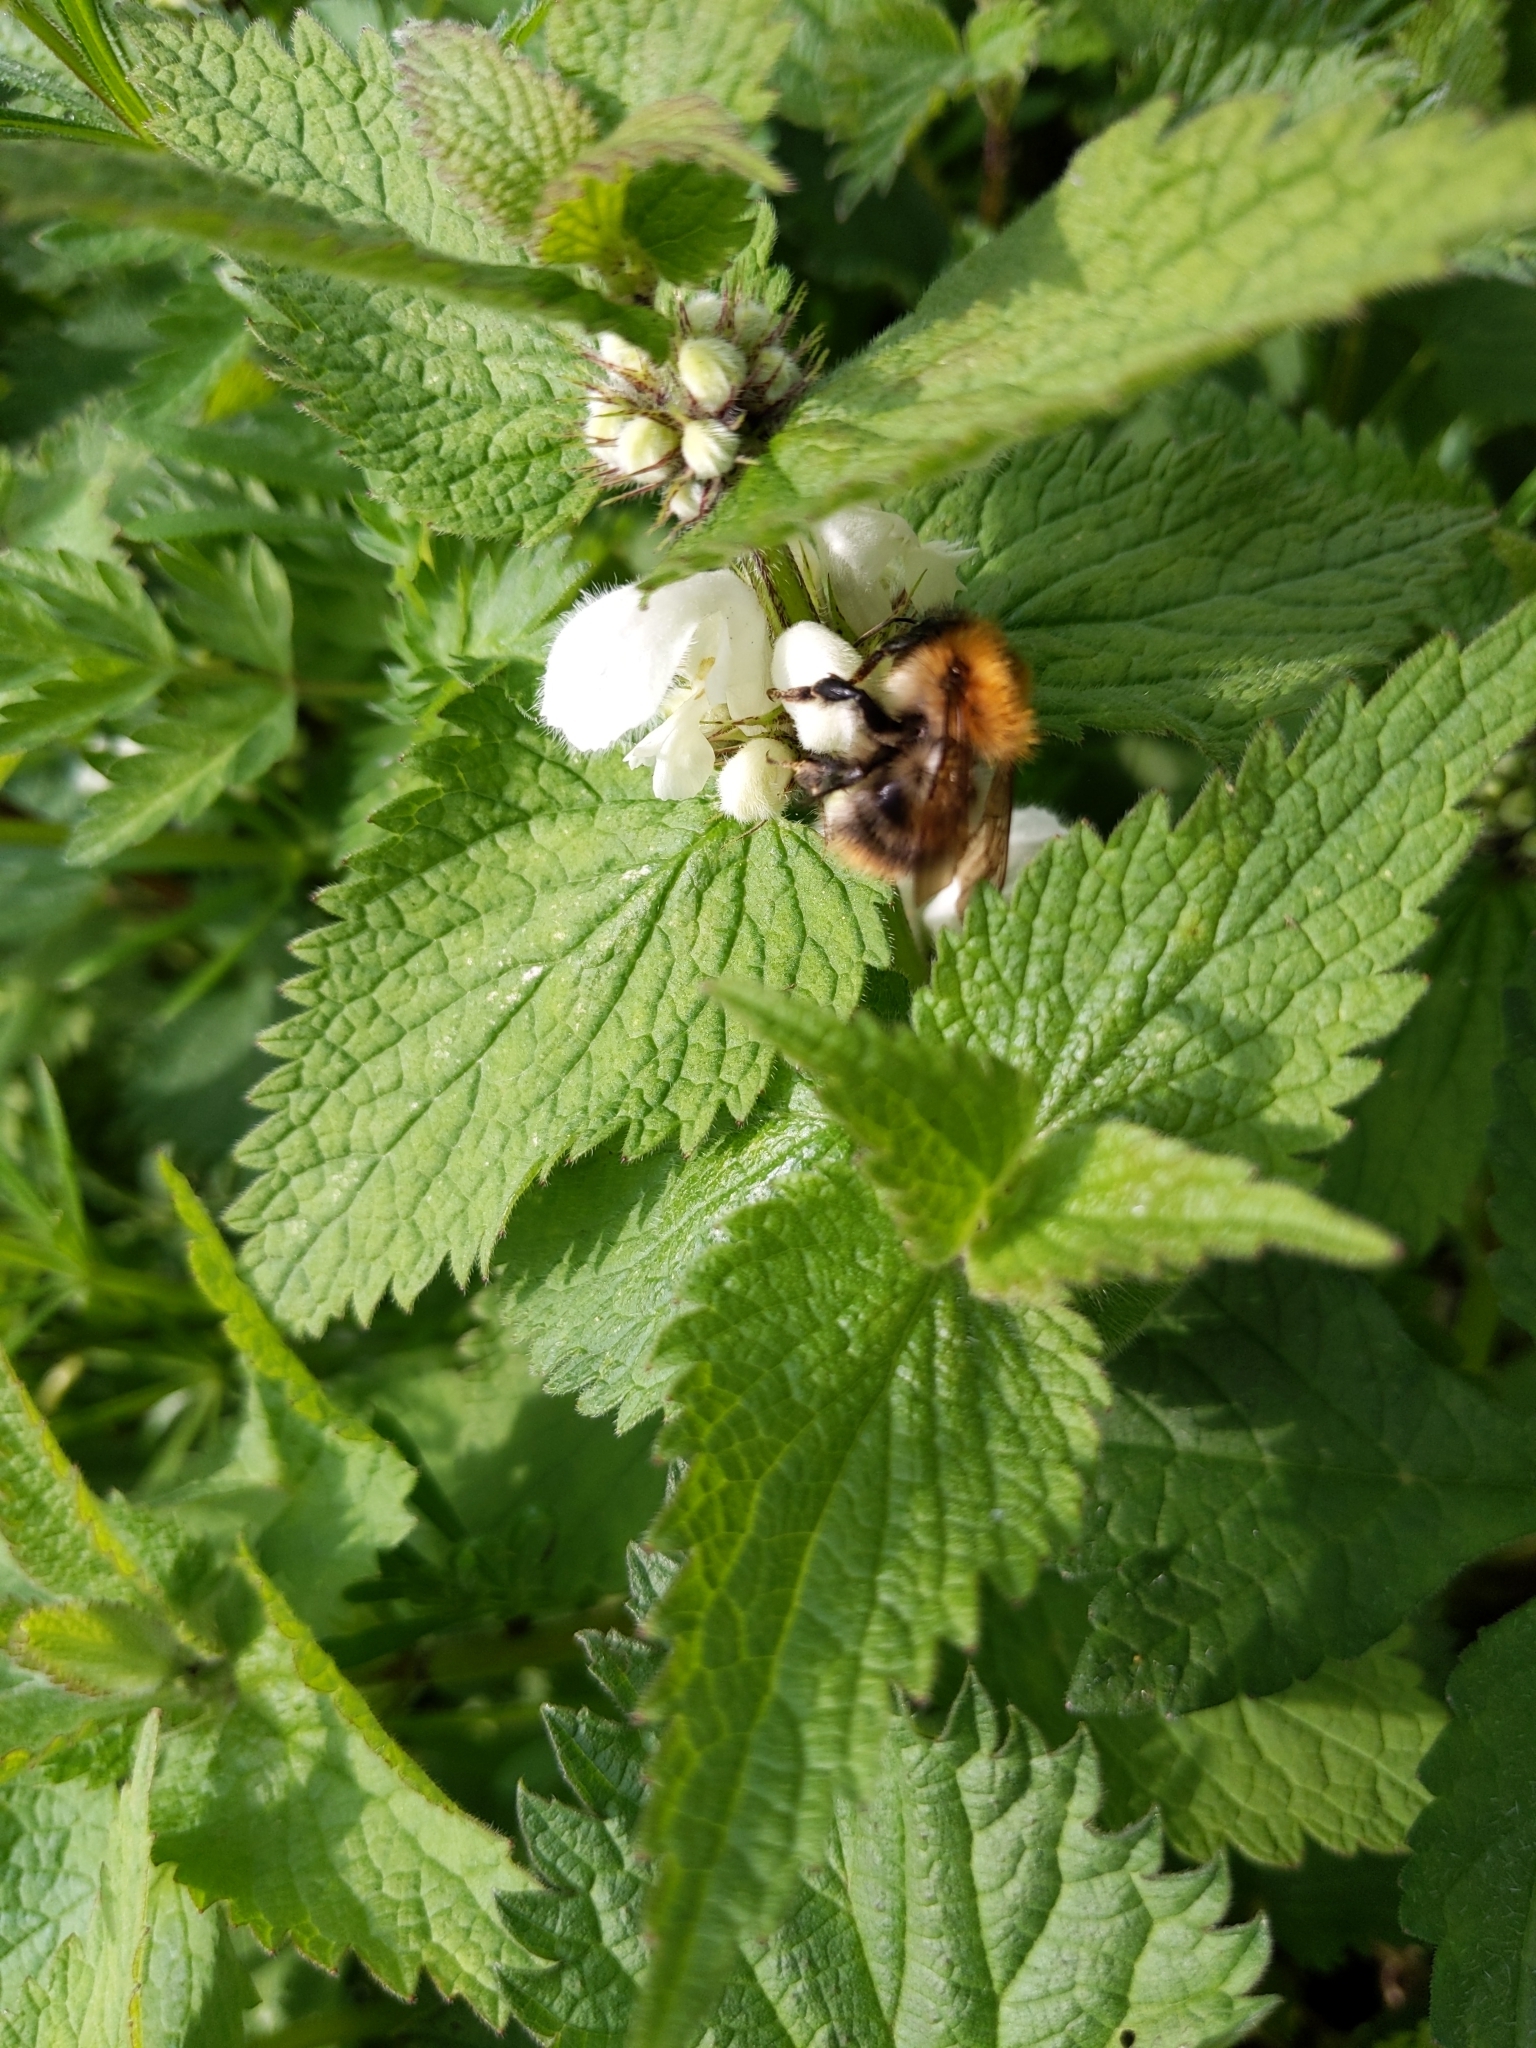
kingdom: Animalia
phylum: Arthropoda
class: Insecta
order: Hymenoptera
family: Apidae
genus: Bombus
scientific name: Bombus pascuorum
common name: Common carder bee
